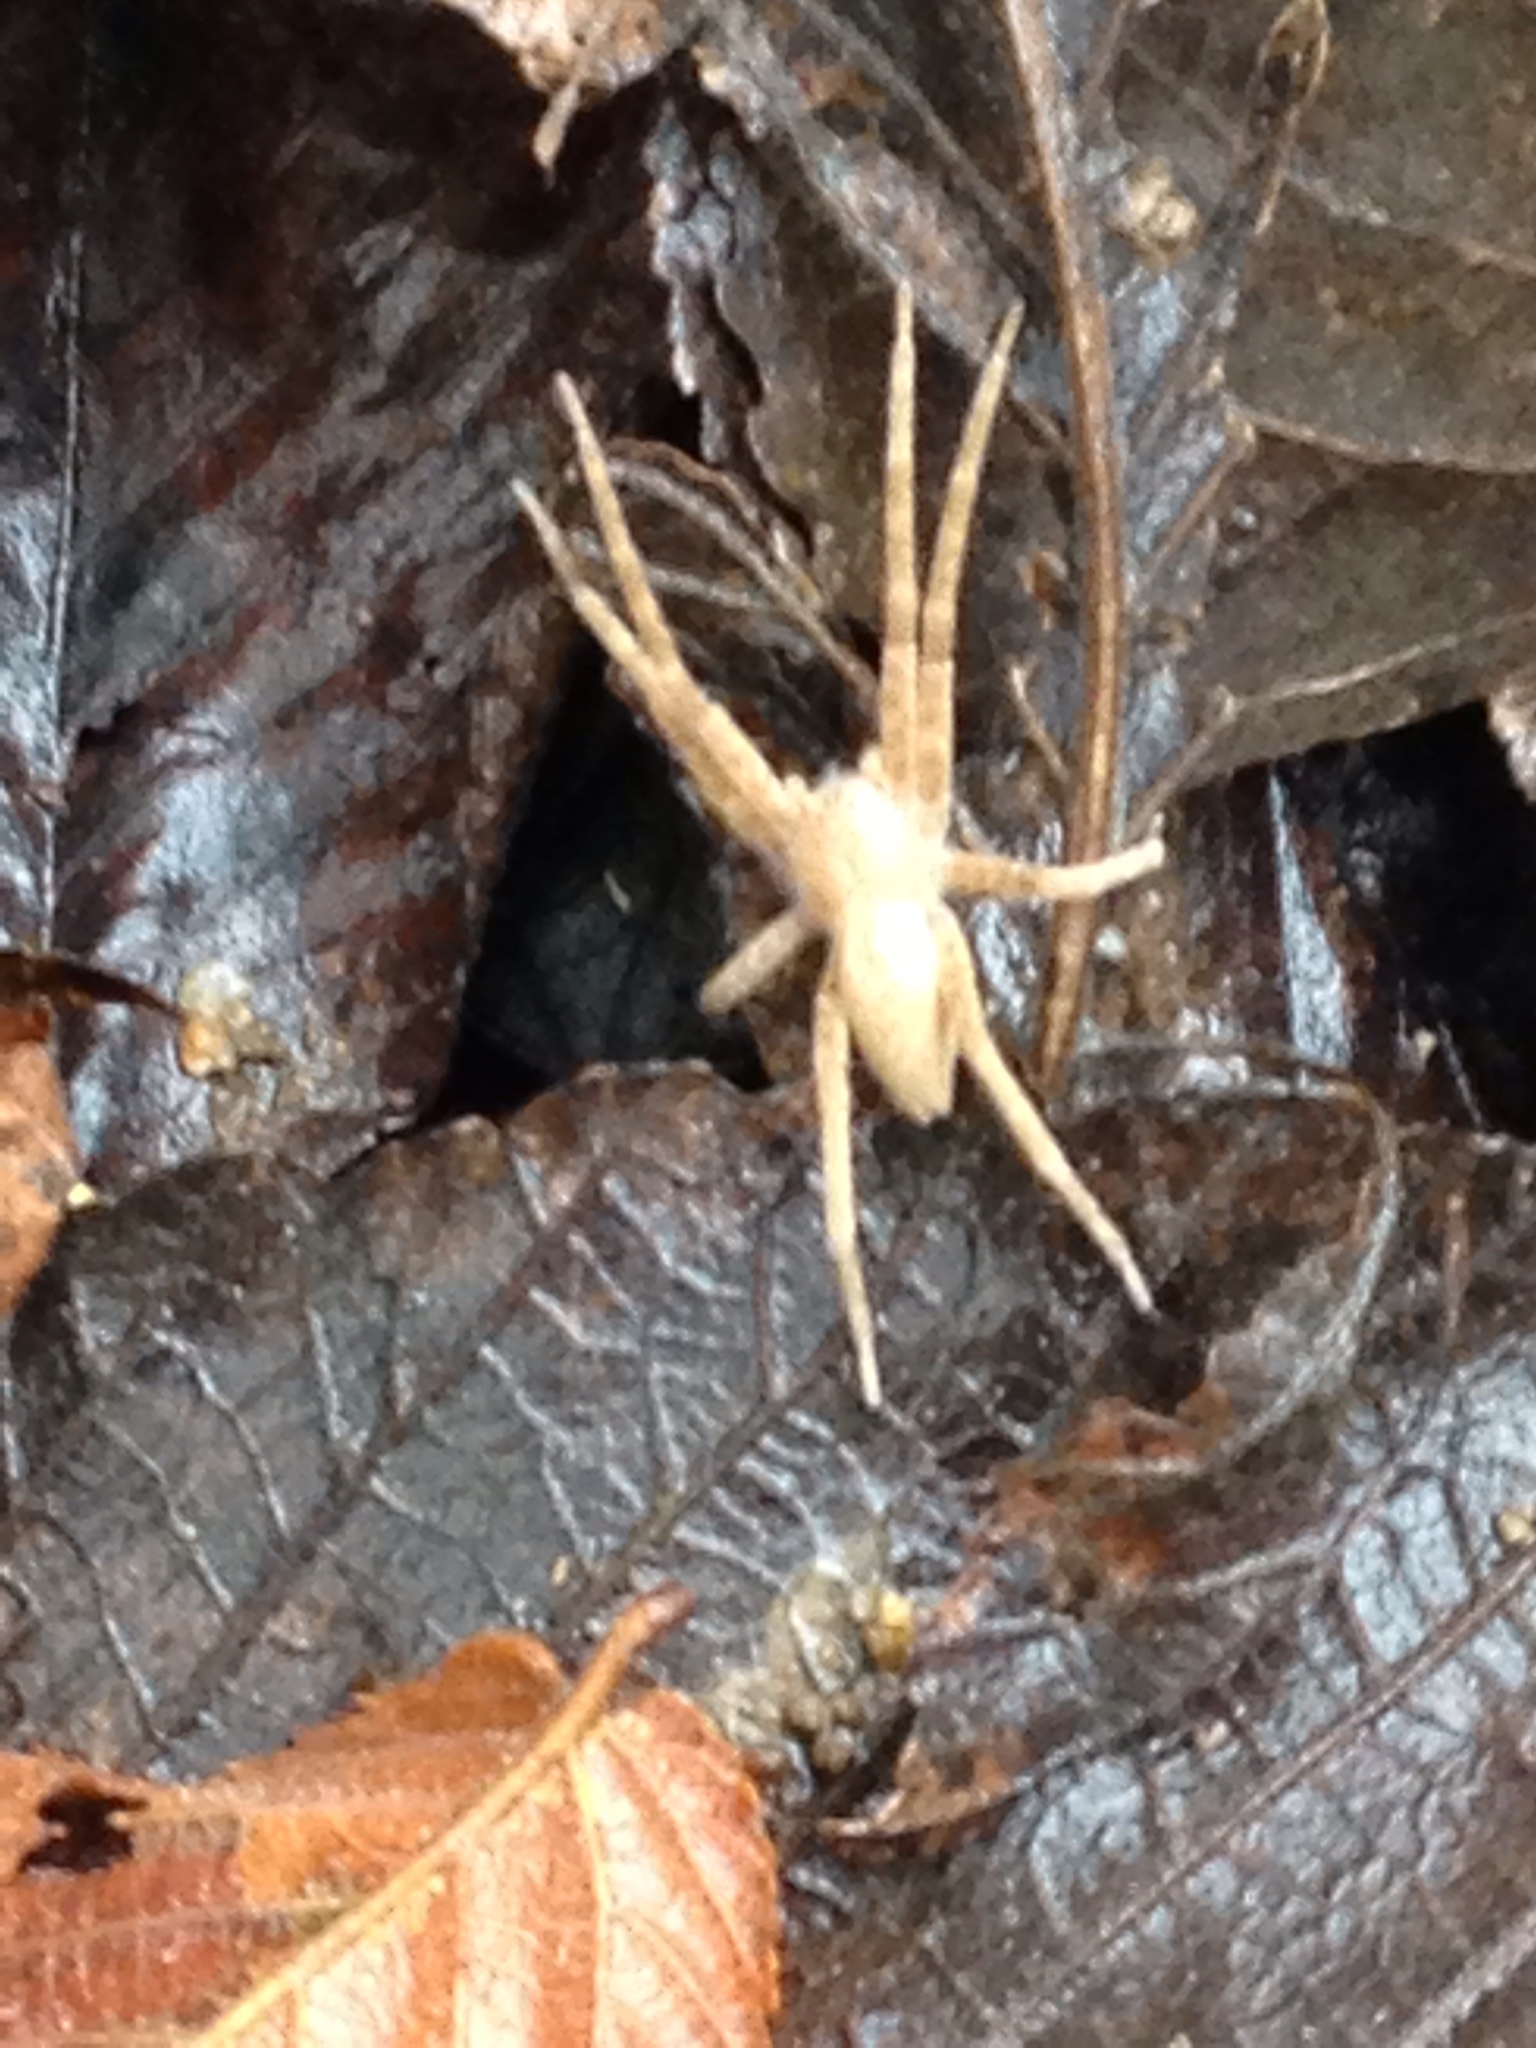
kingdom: Animalia
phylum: Arthropoda
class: Arachnida
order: Araneae
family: Pisauridae
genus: Pisaurina
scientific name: Pisaurina mira
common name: American nursery web spider
